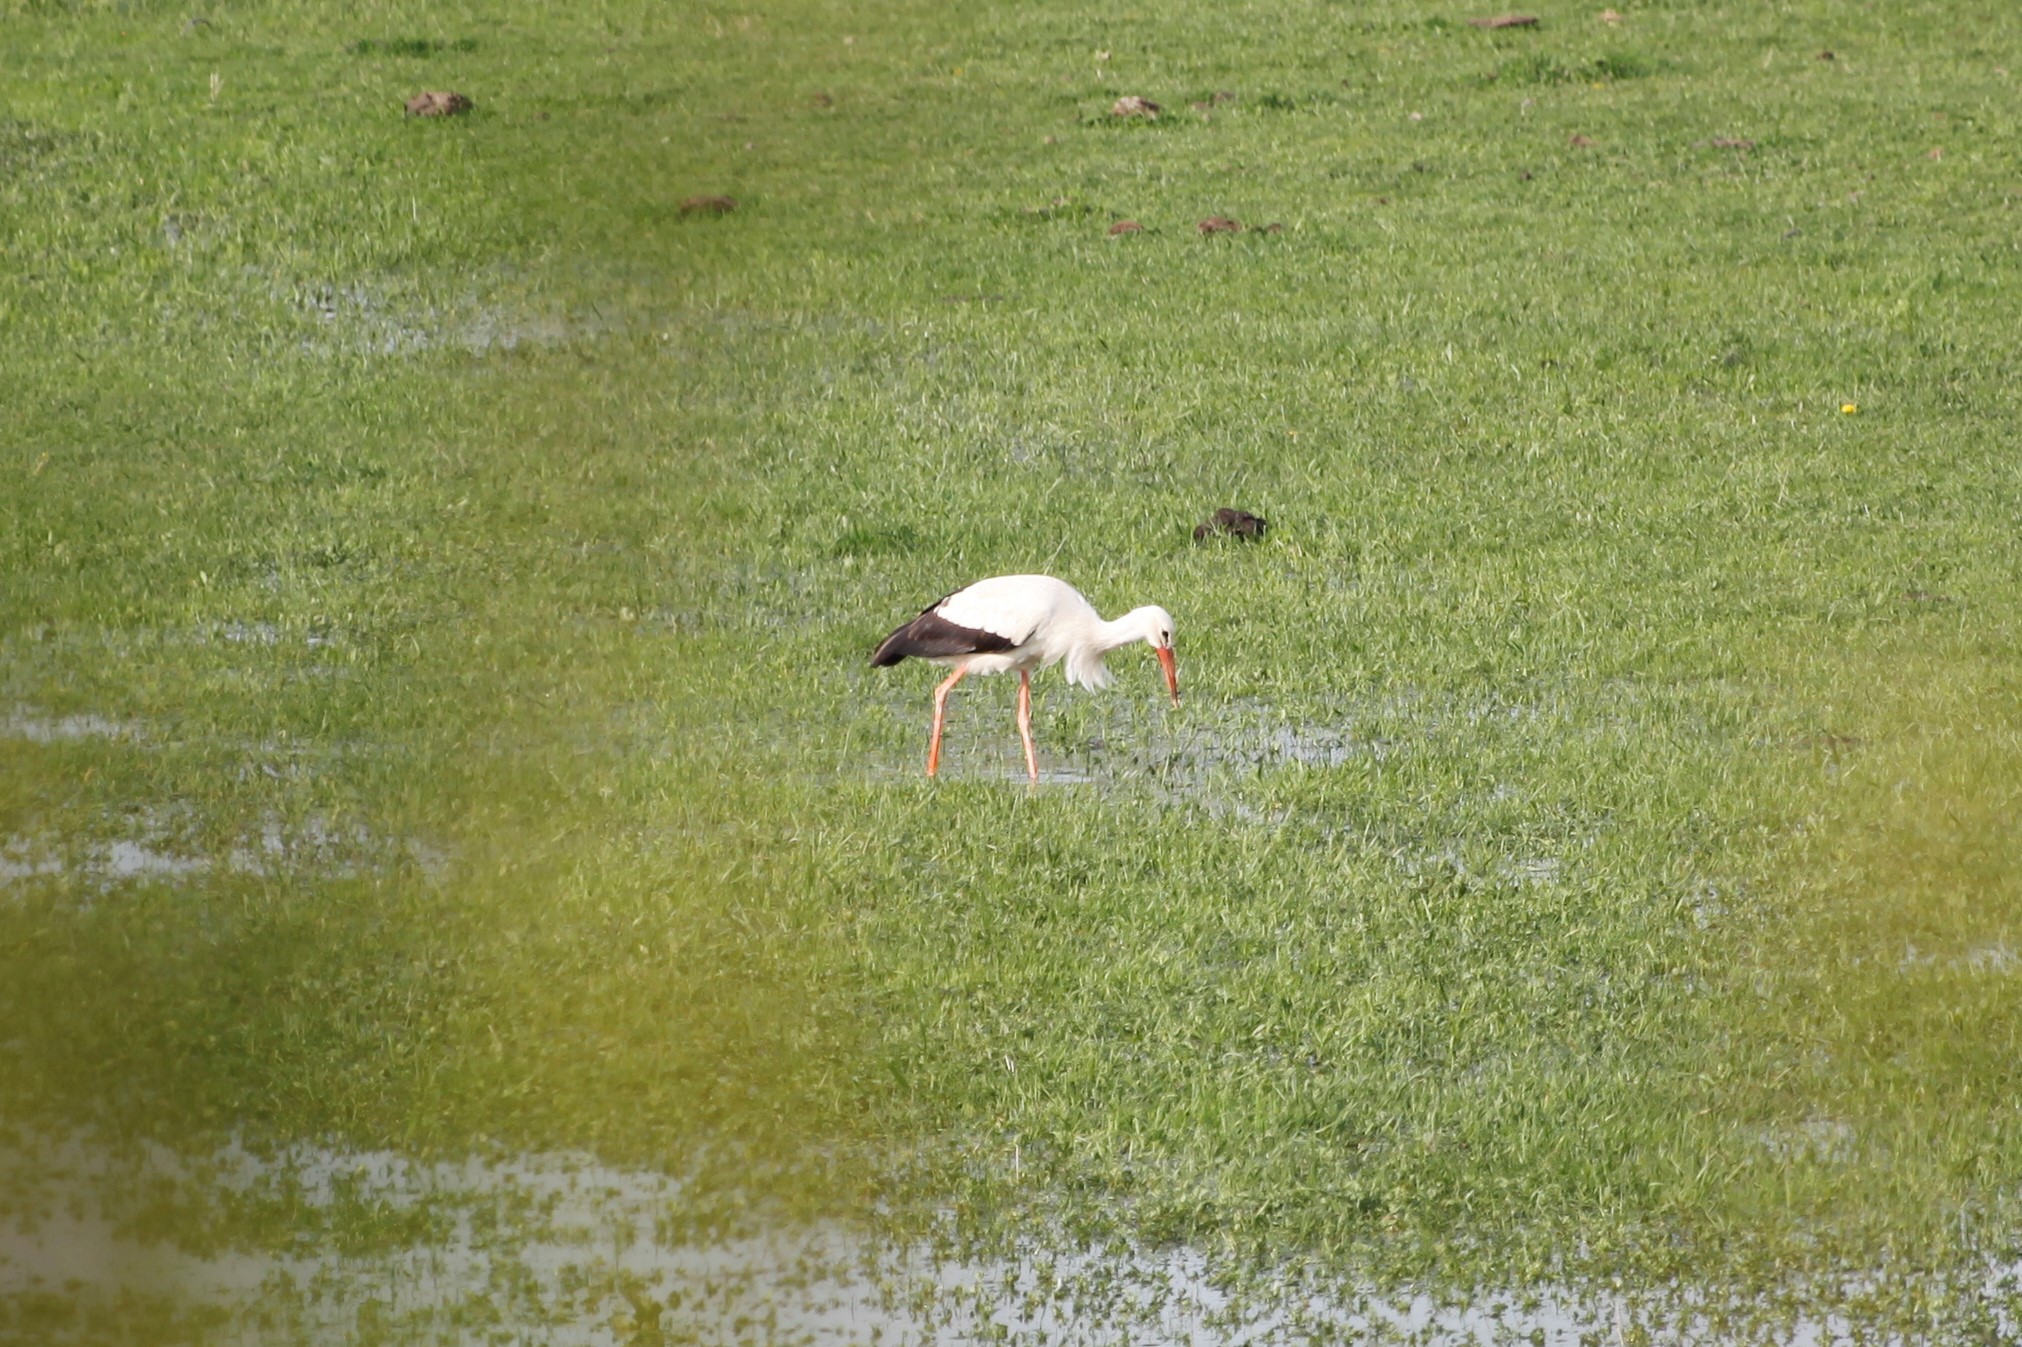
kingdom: Animalia
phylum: Chordata
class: Aves
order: Ciconiiformes
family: Ciconiidae
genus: Ciconia
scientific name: Ciconia ciconia
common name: White stork
